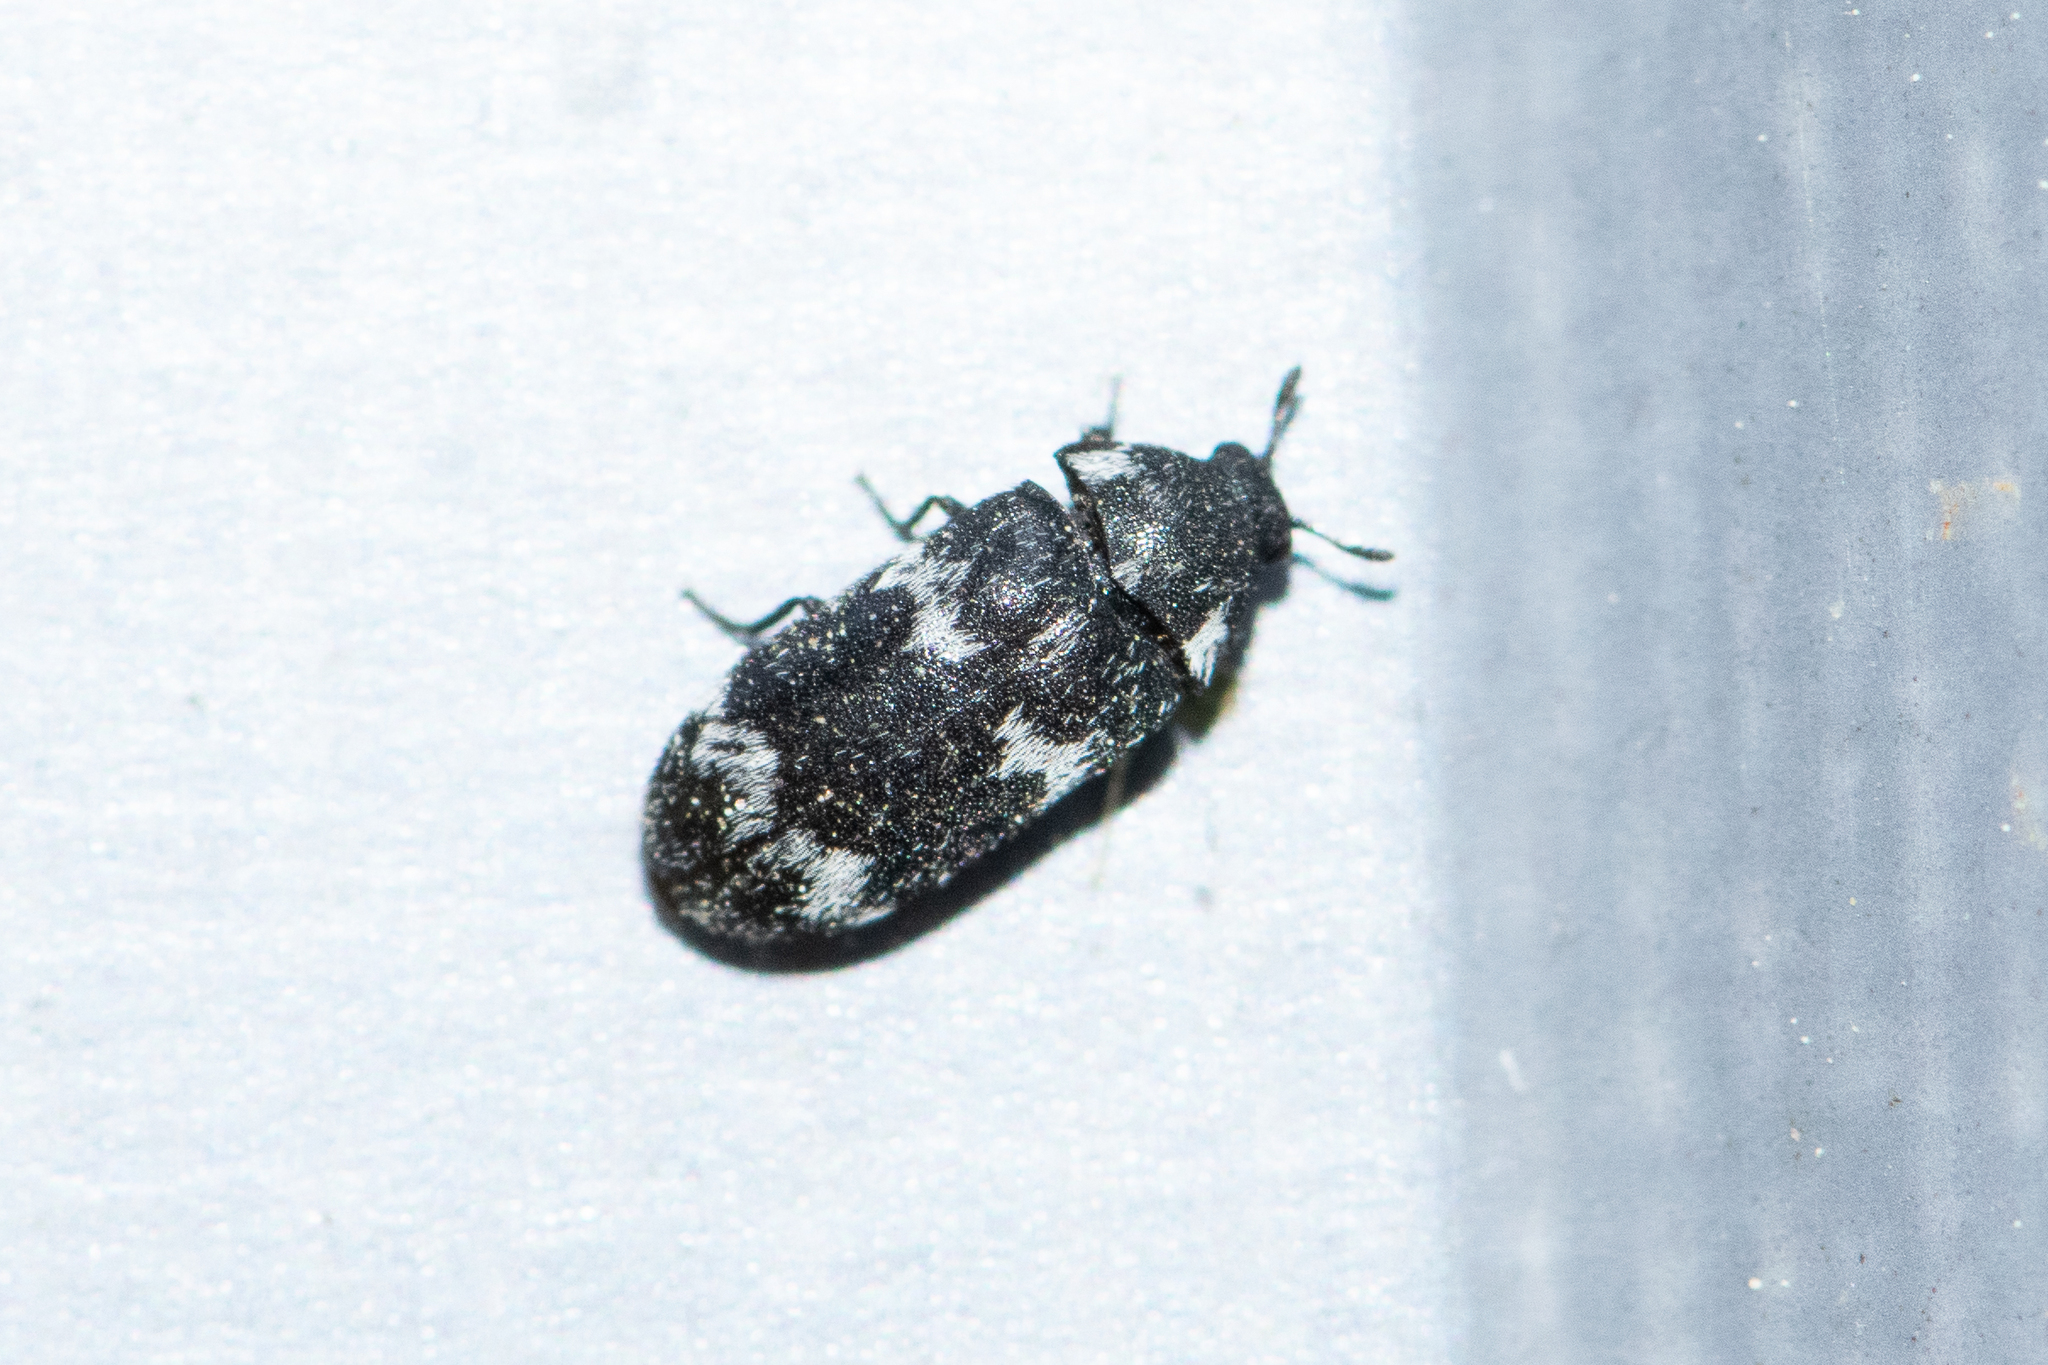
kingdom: Animalia
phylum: Arthropoda
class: Insecta
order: Coleoptera
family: Dermestidae
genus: Megatoma
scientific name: Megatoma undata
